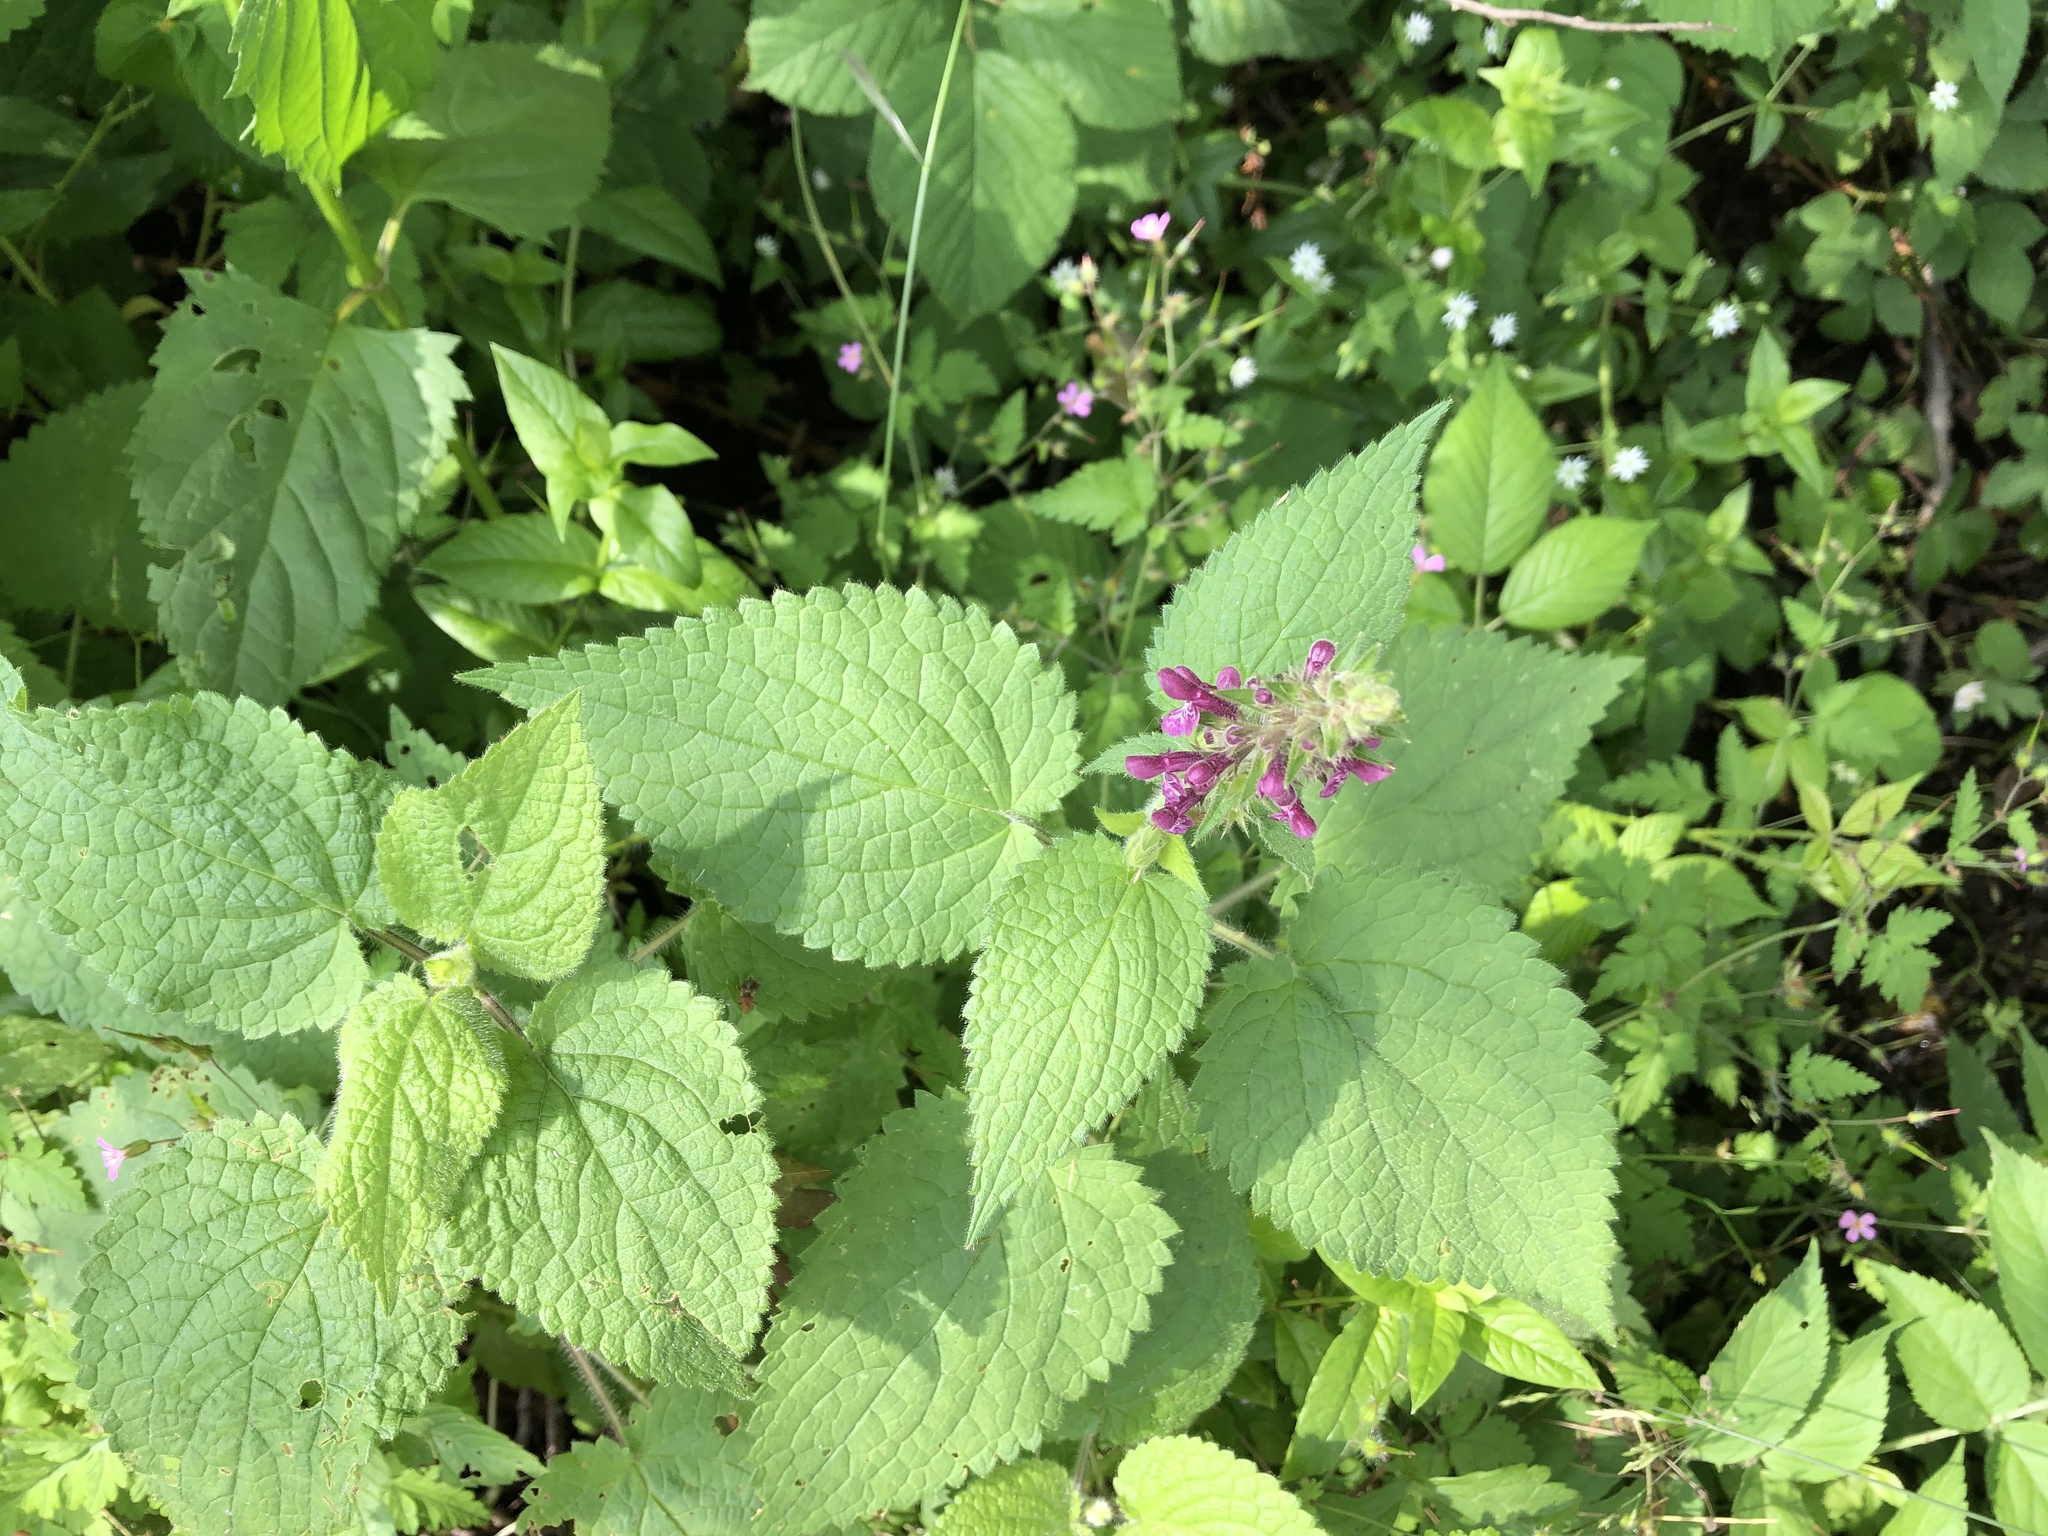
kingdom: Plantae
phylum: Tracheophyta
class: Magnoliopsida
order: Lamiales
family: Lamiaceae
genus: Stachys
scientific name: Stachys sylvatica
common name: Hedge woundwort
